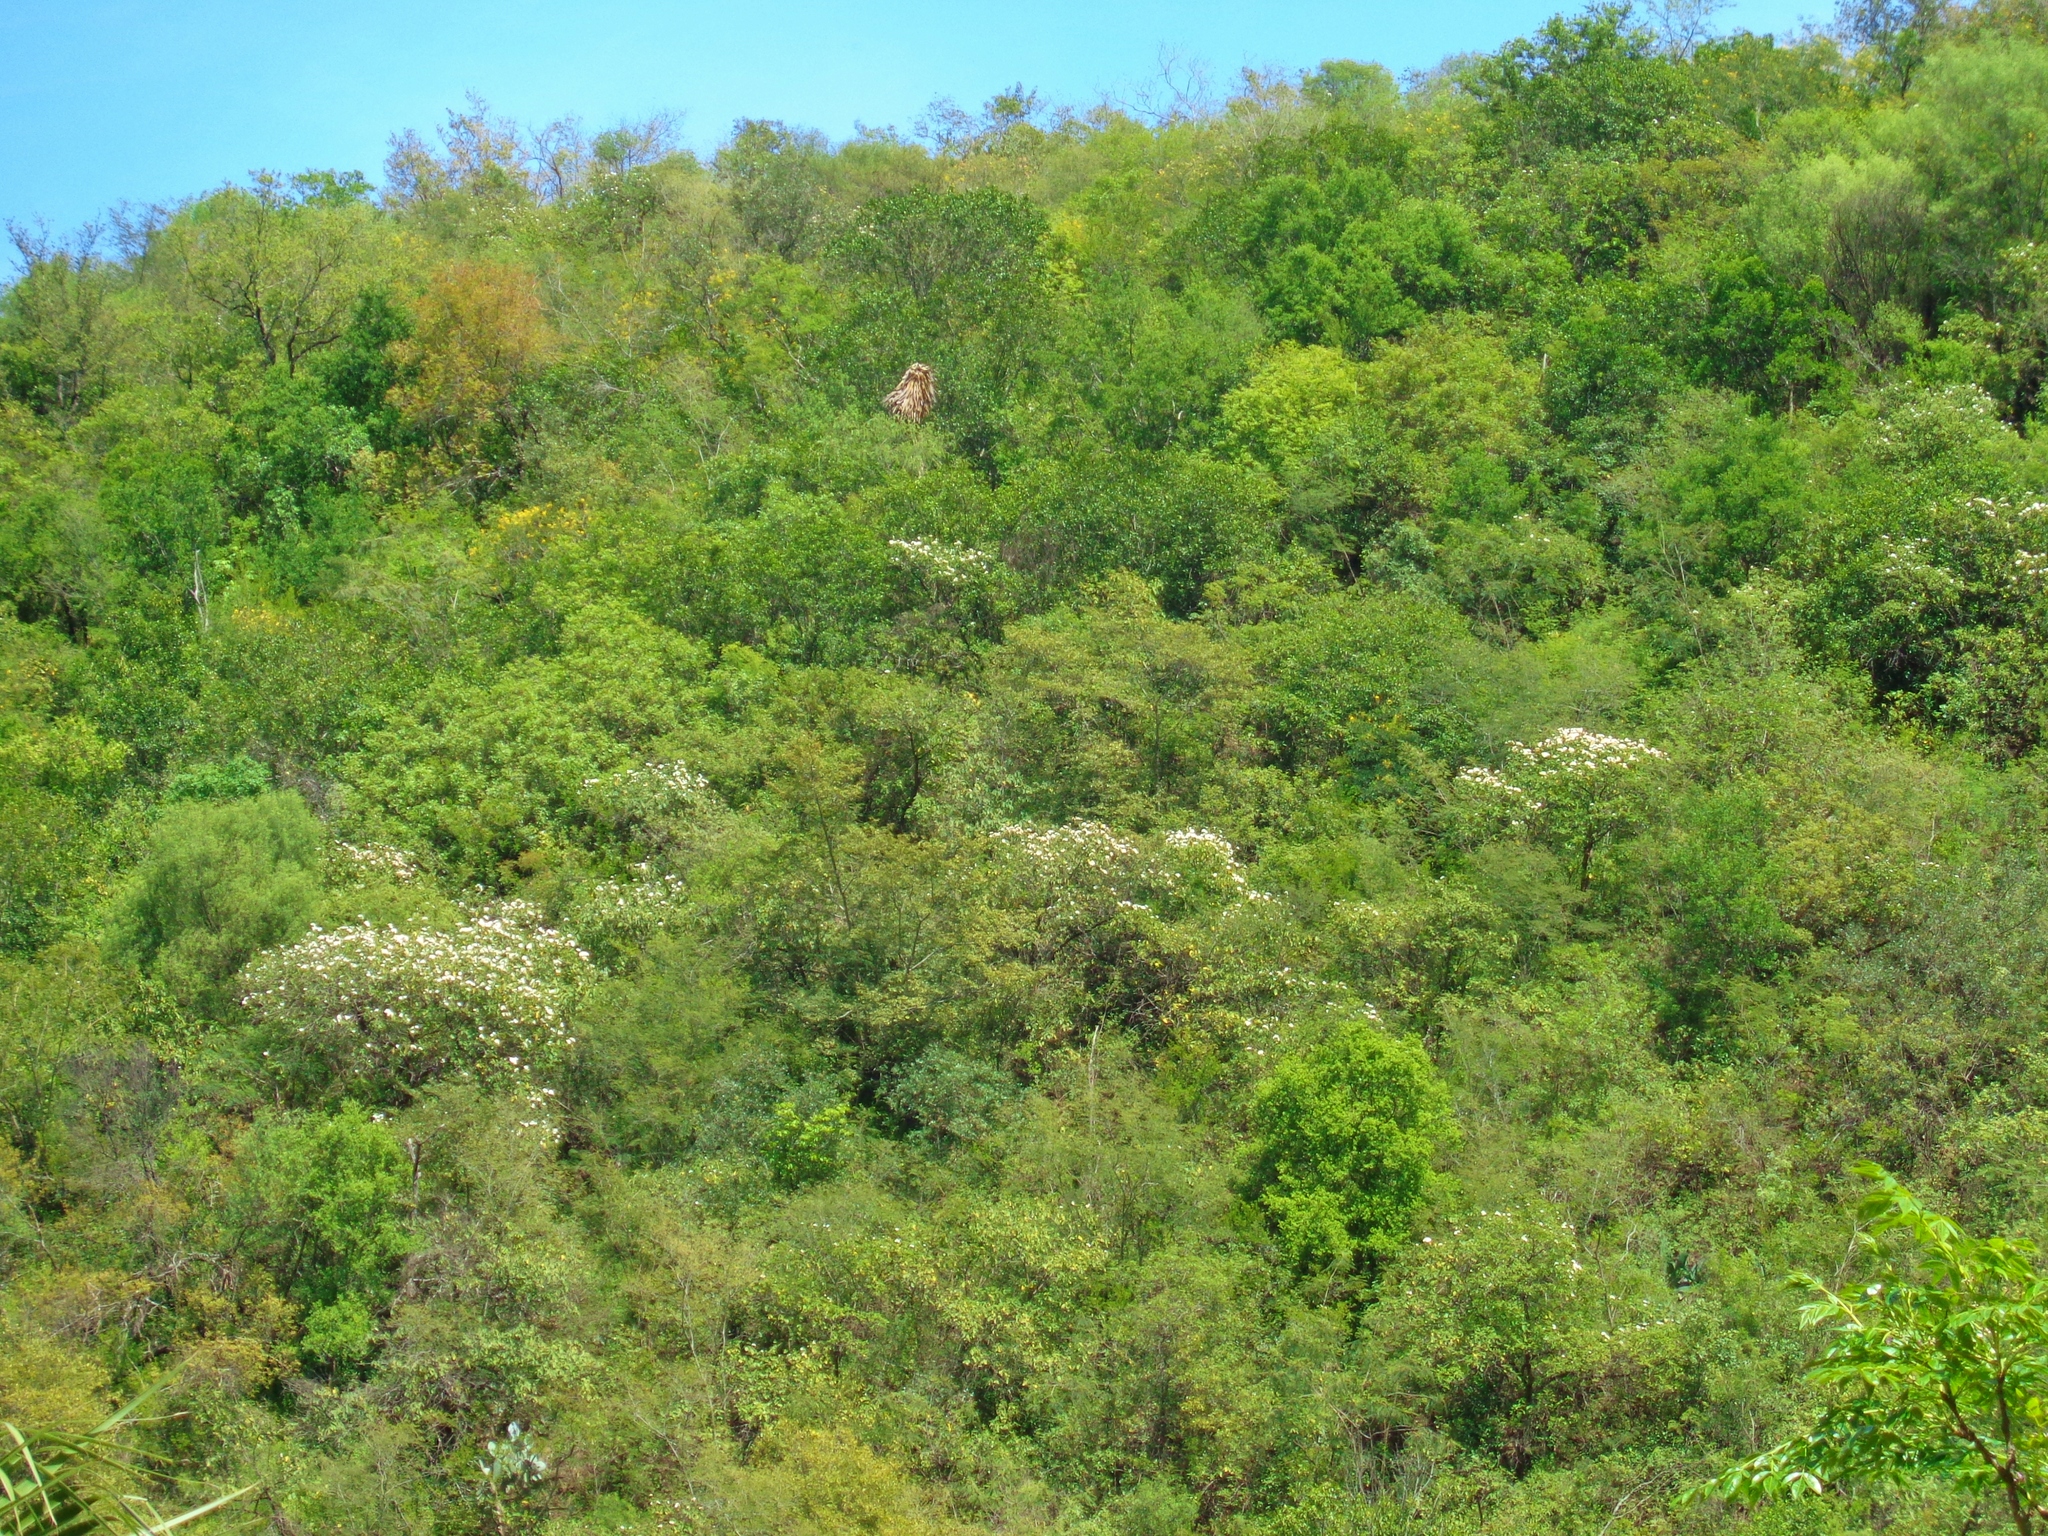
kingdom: Plantae
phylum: Tracheophyta
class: Magnoliopsida
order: Boraginales
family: Cordiaceae
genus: Cordia
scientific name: Cordia boissieri
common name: Mexican-olive
